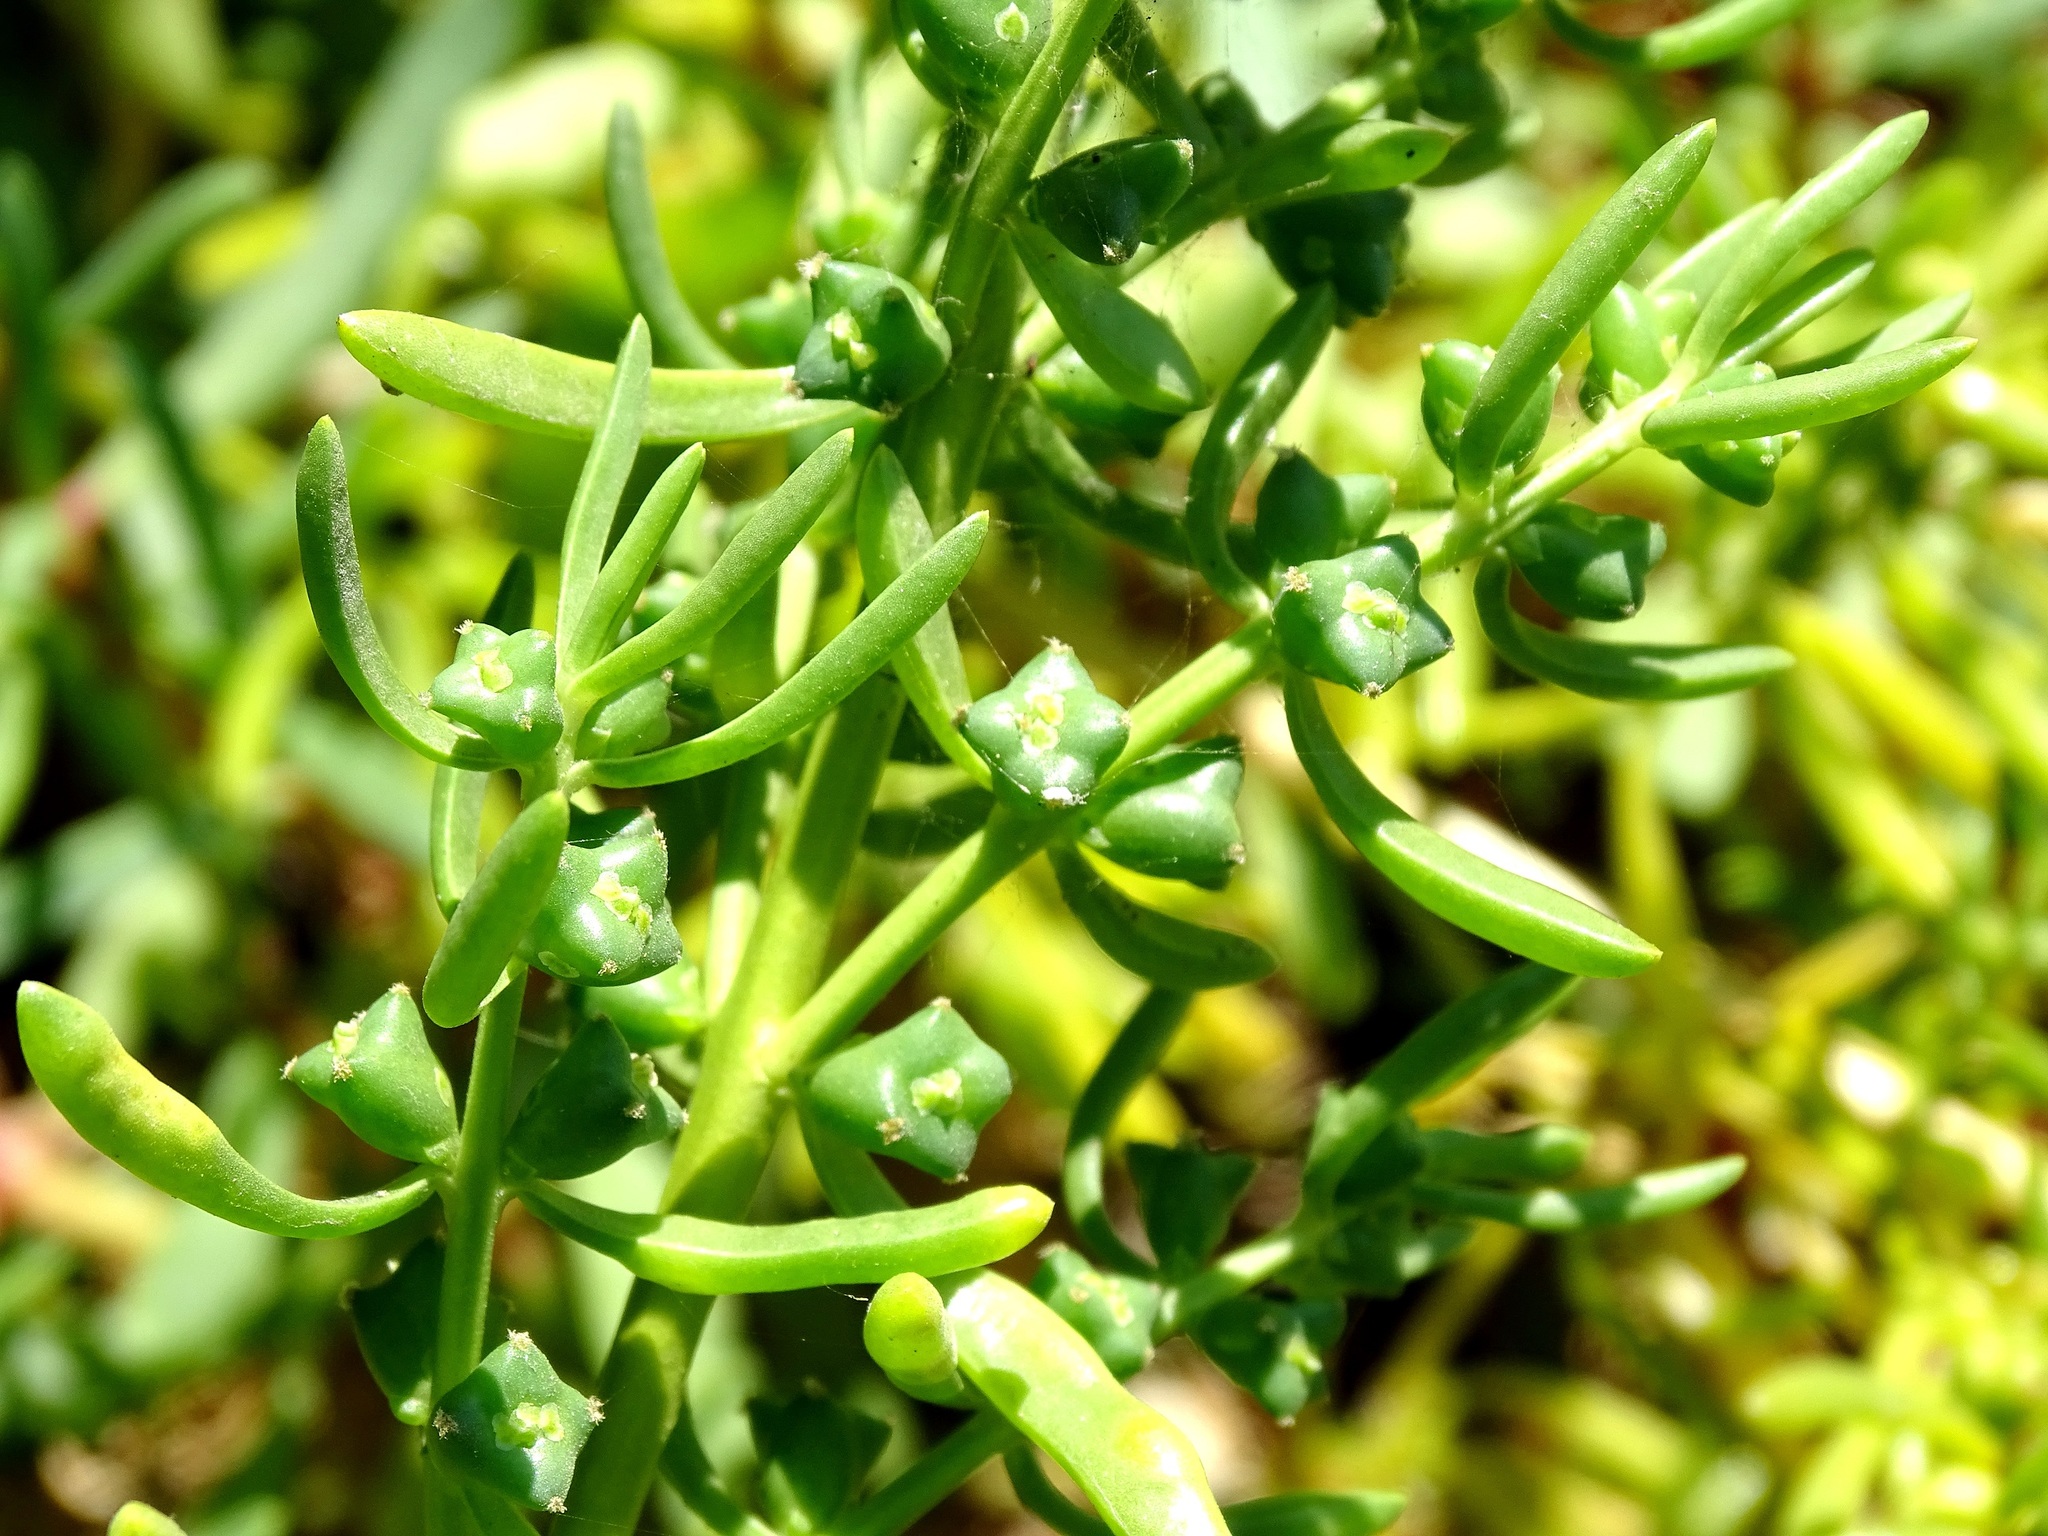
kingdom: Plantae
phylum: Tracheophyta
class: Magnoliopsida
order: Brassicales
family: Bataceae
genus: Batis
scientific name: Batis maritima
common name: Turtleweed
